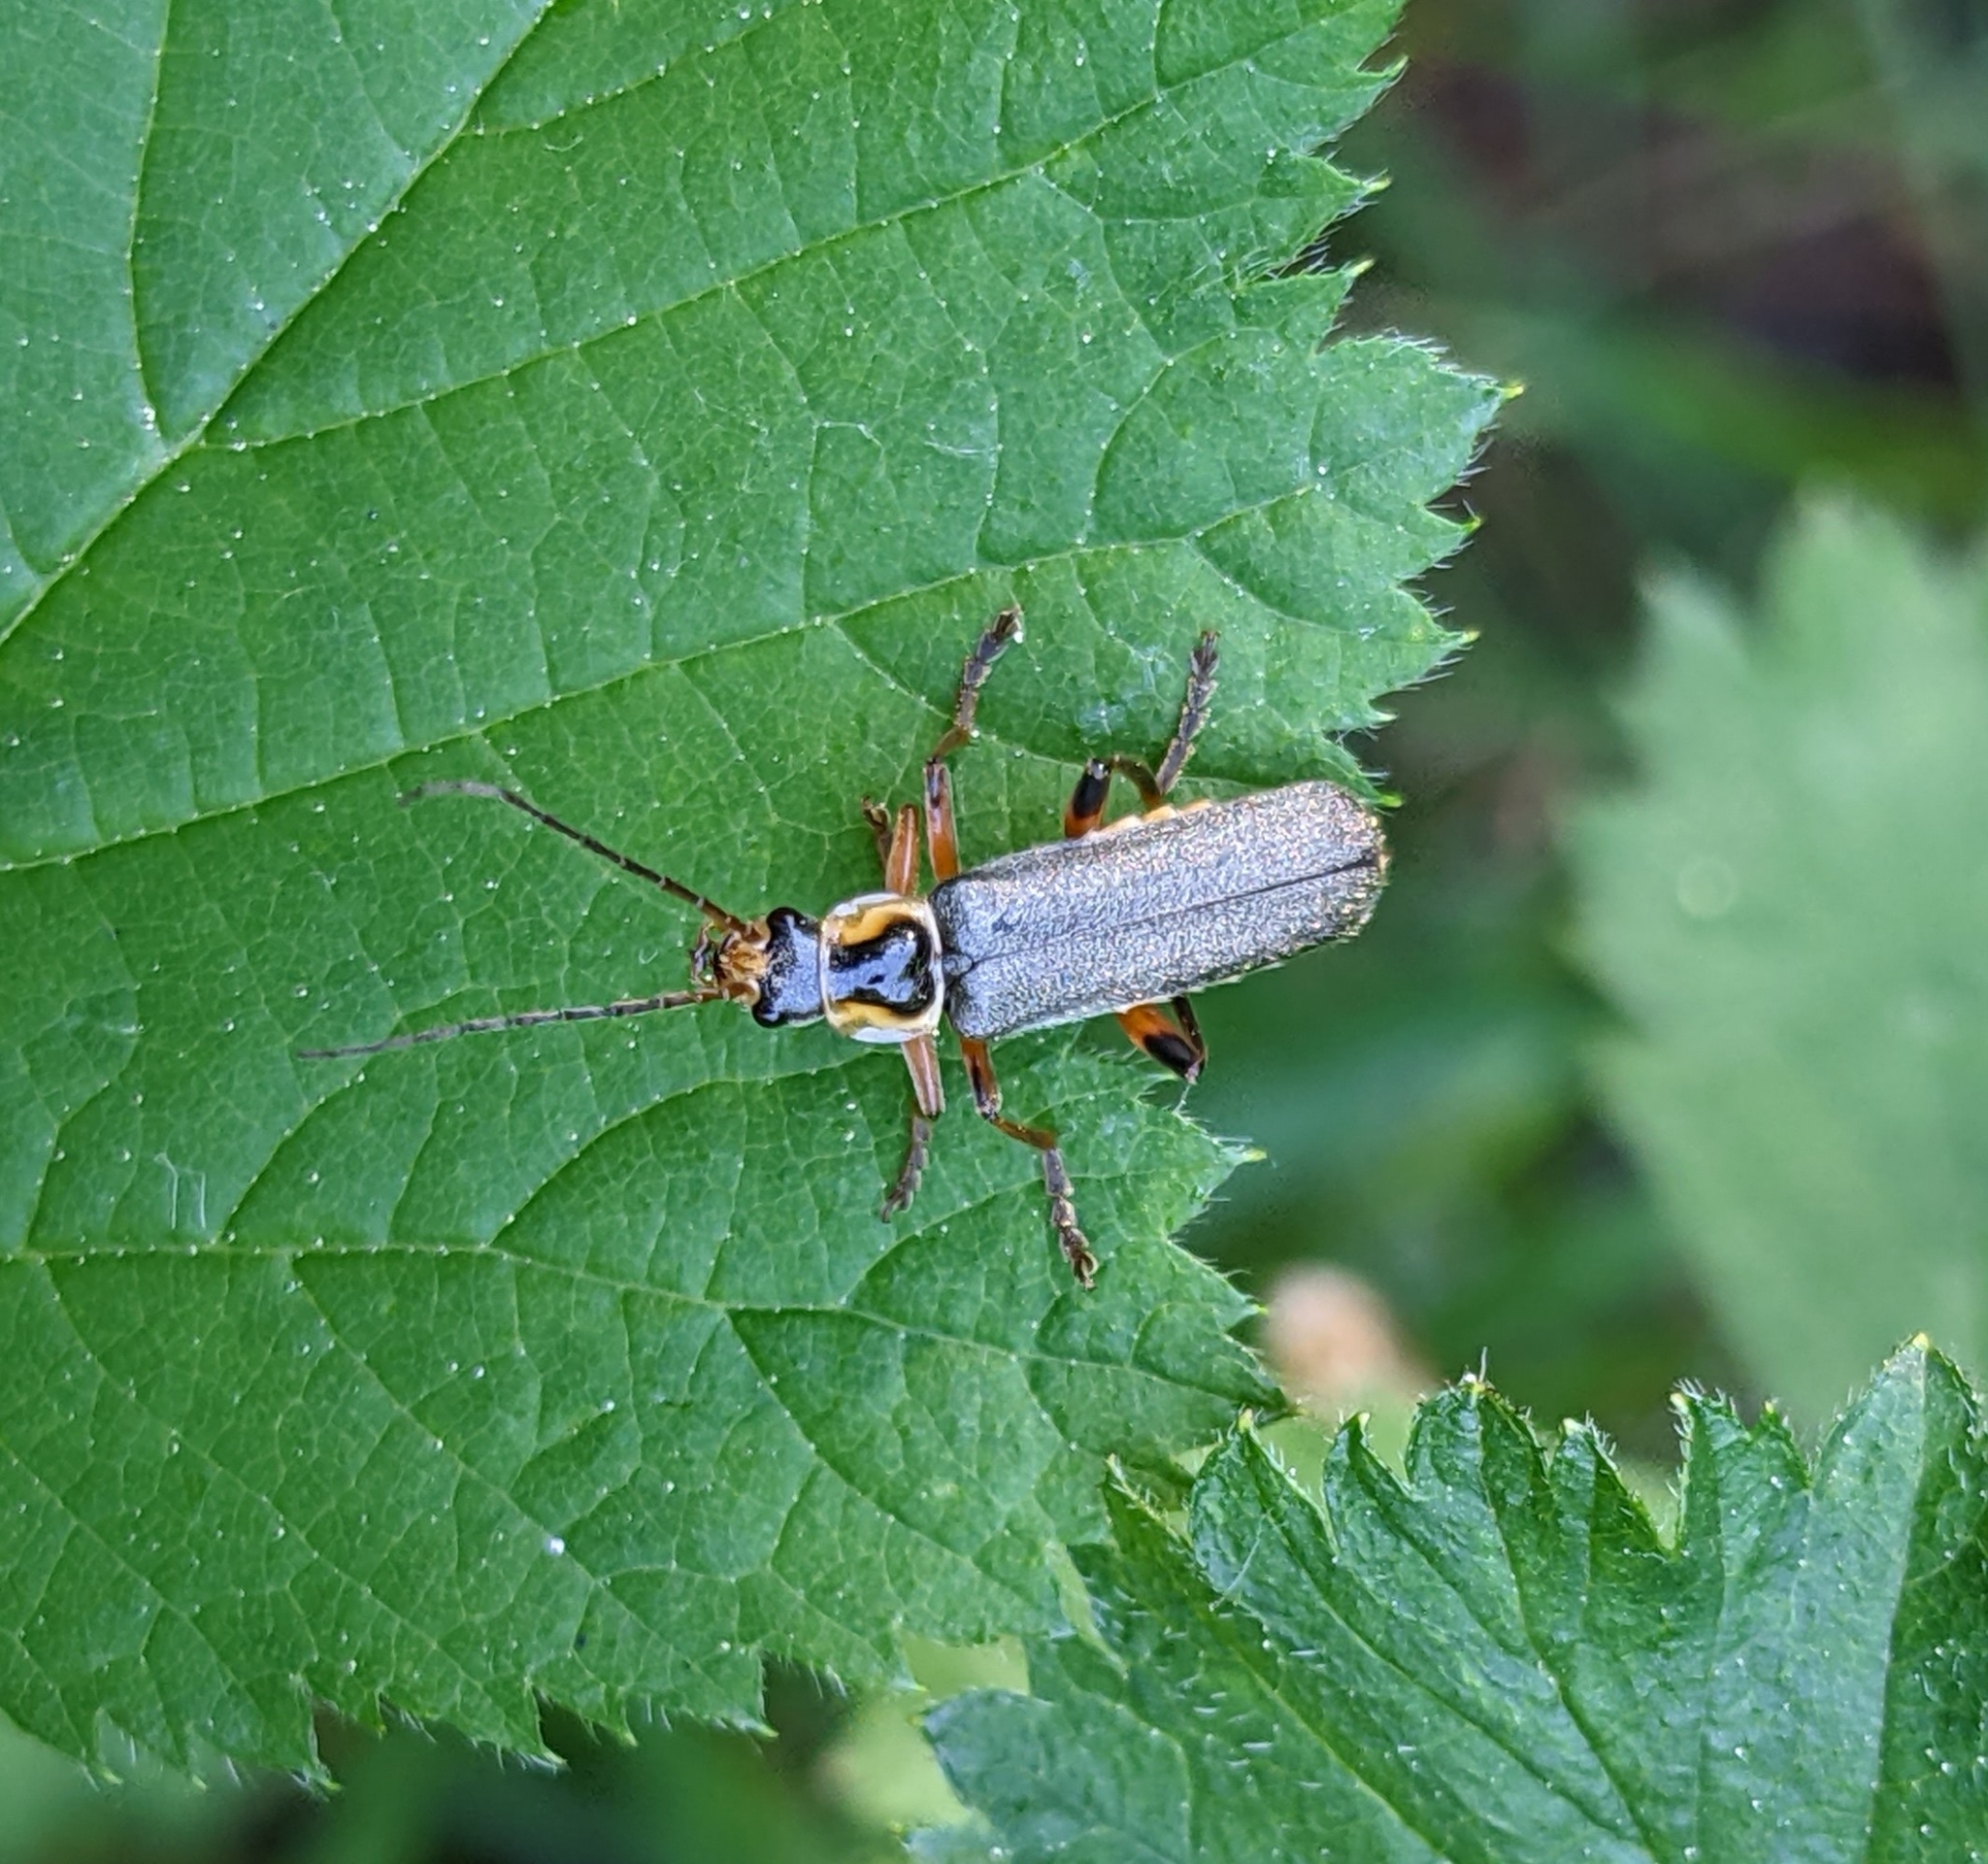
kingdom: Animalia
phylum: Arthropoda
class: Insecta
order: Coleoptera
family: Cantharidae
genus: Cantharis
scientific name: Cantharis nigricans
